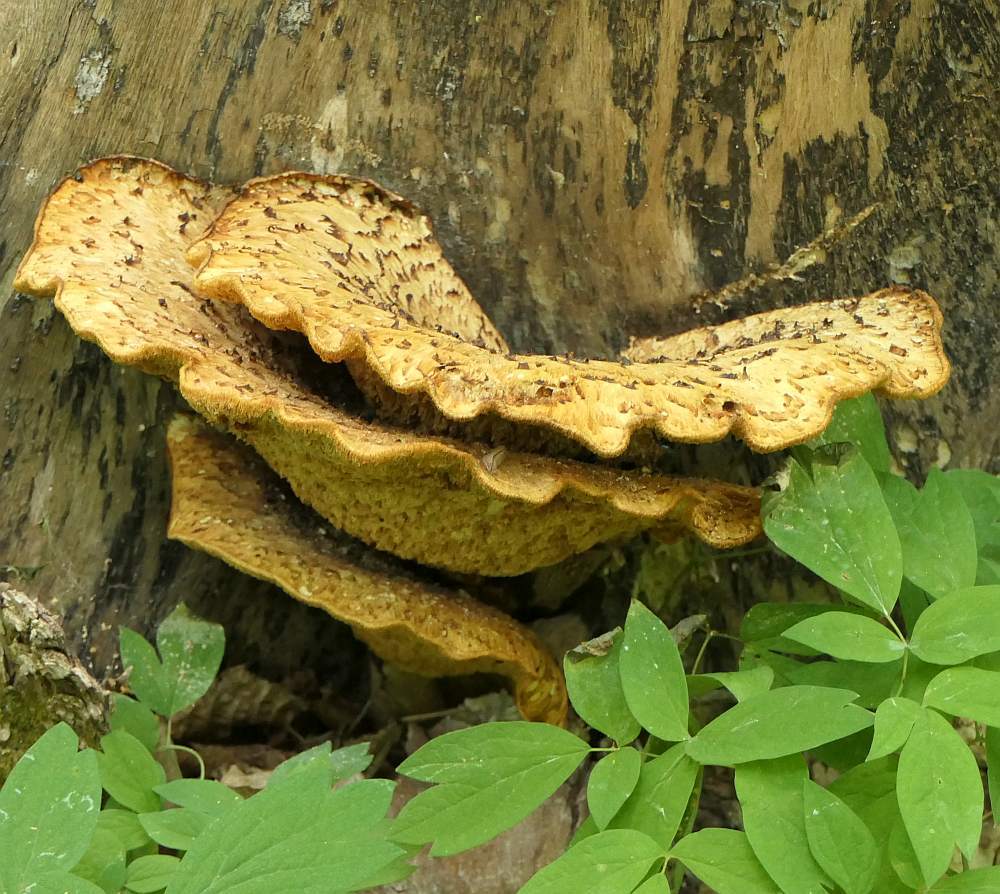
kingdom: Fungi
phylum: Basidiomycota
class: Agaricomycetes
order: Polyporales
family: Polyporaceae
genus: Cerioporus
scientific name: Cerioporus squamosus
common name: Dryad's saddle
